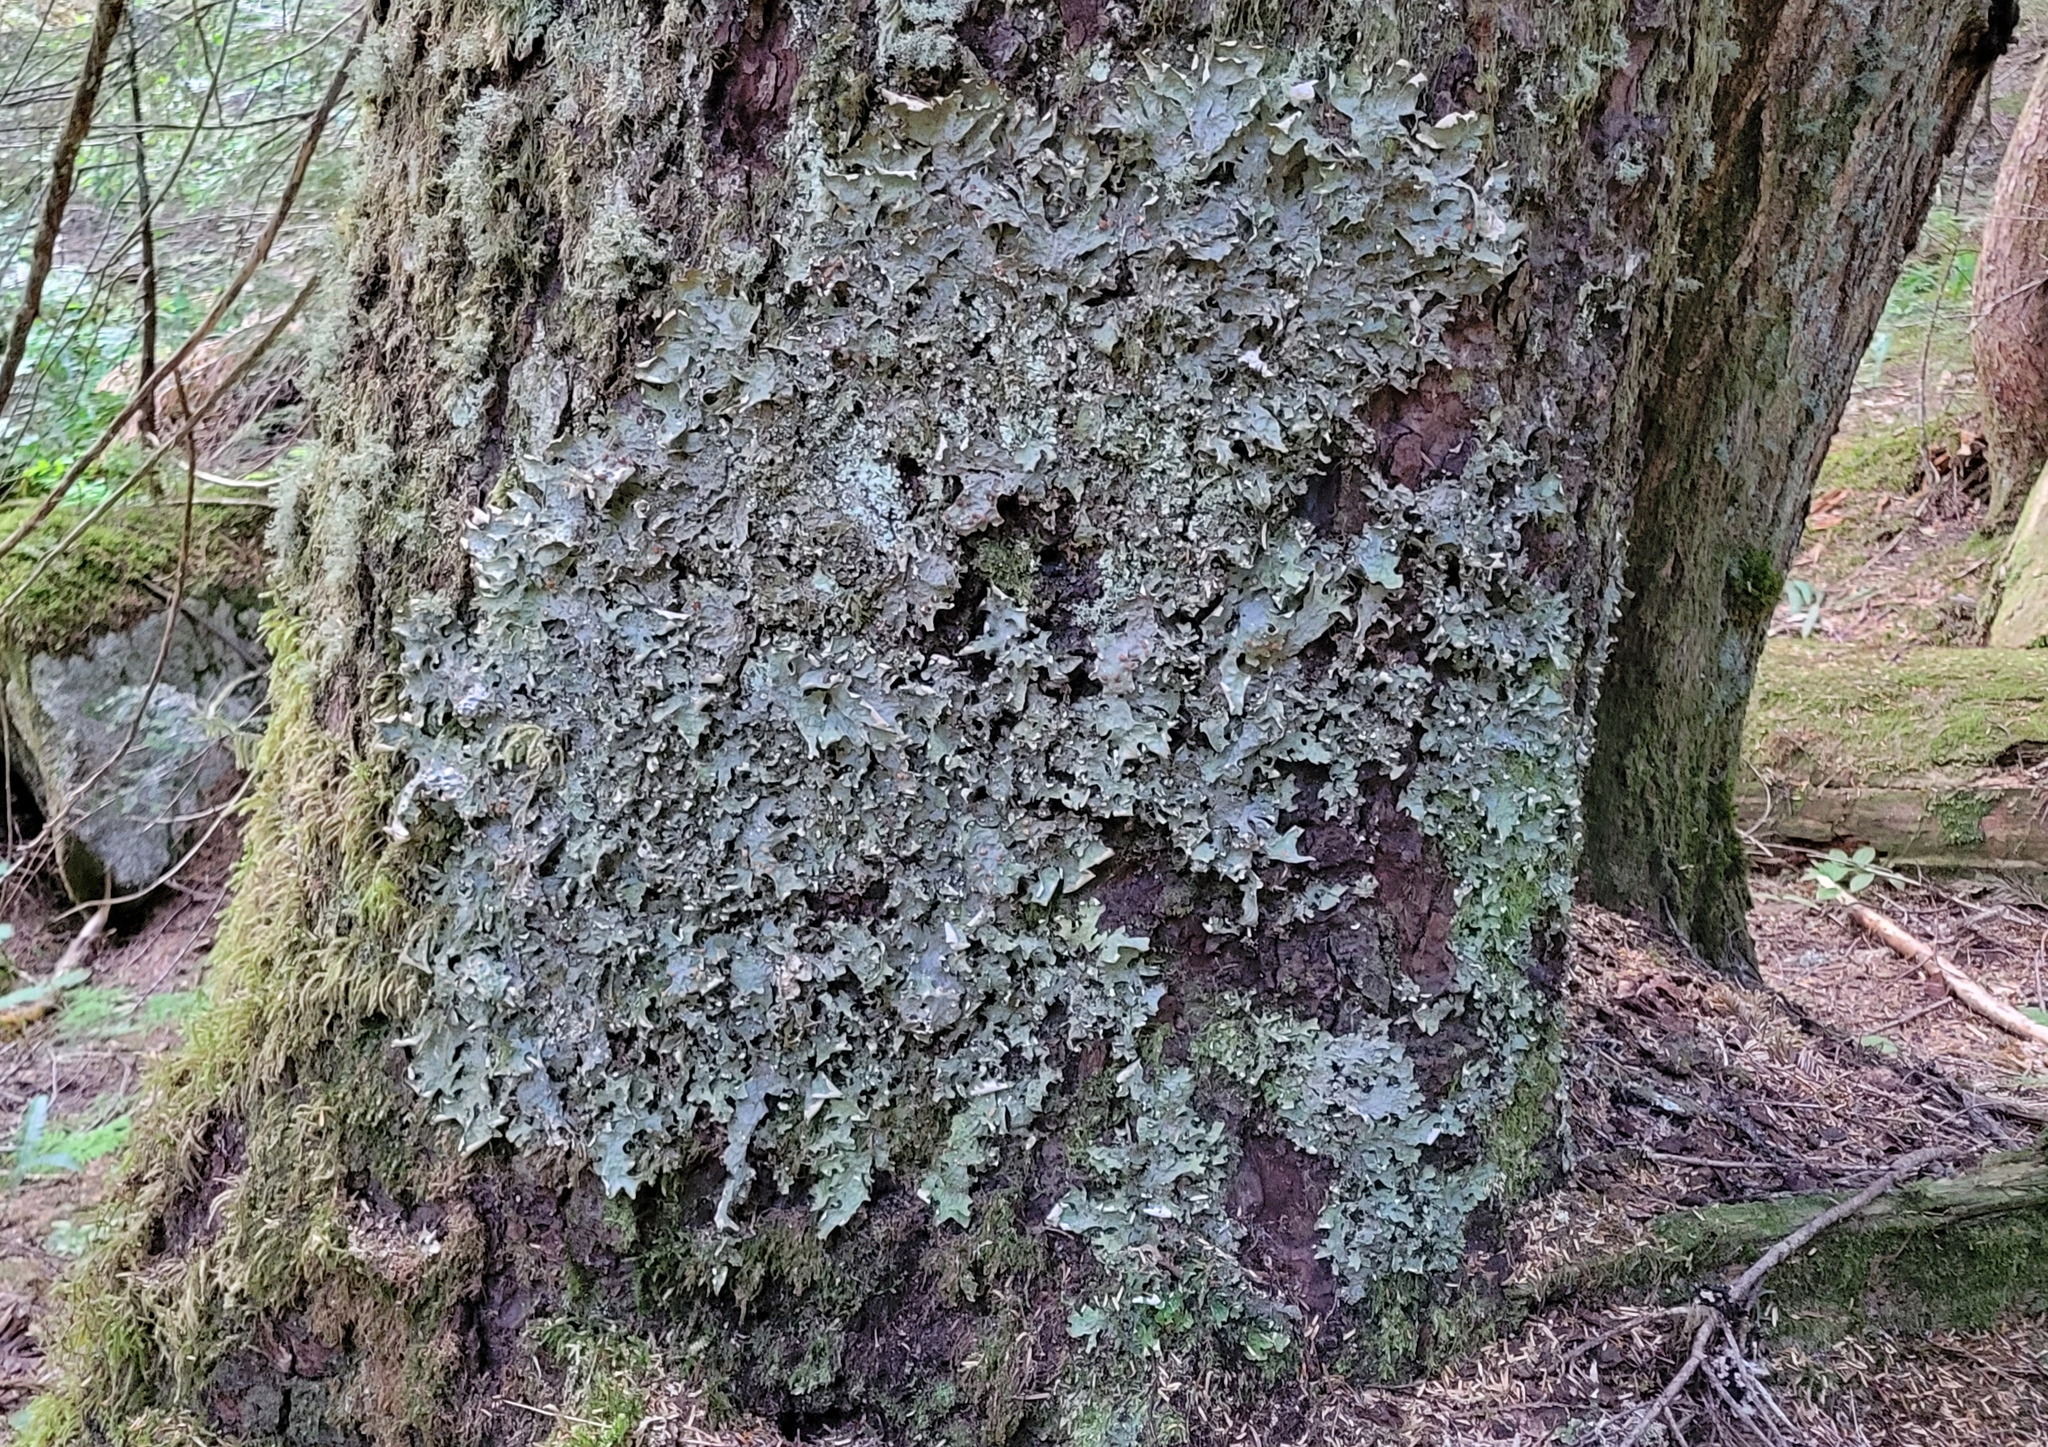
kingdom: Fungi
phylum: Ascomycota
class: Lecanoromycetes
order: Peltigerales
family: Lobariaceae
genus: Lobaria
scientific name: Lobaria linita
